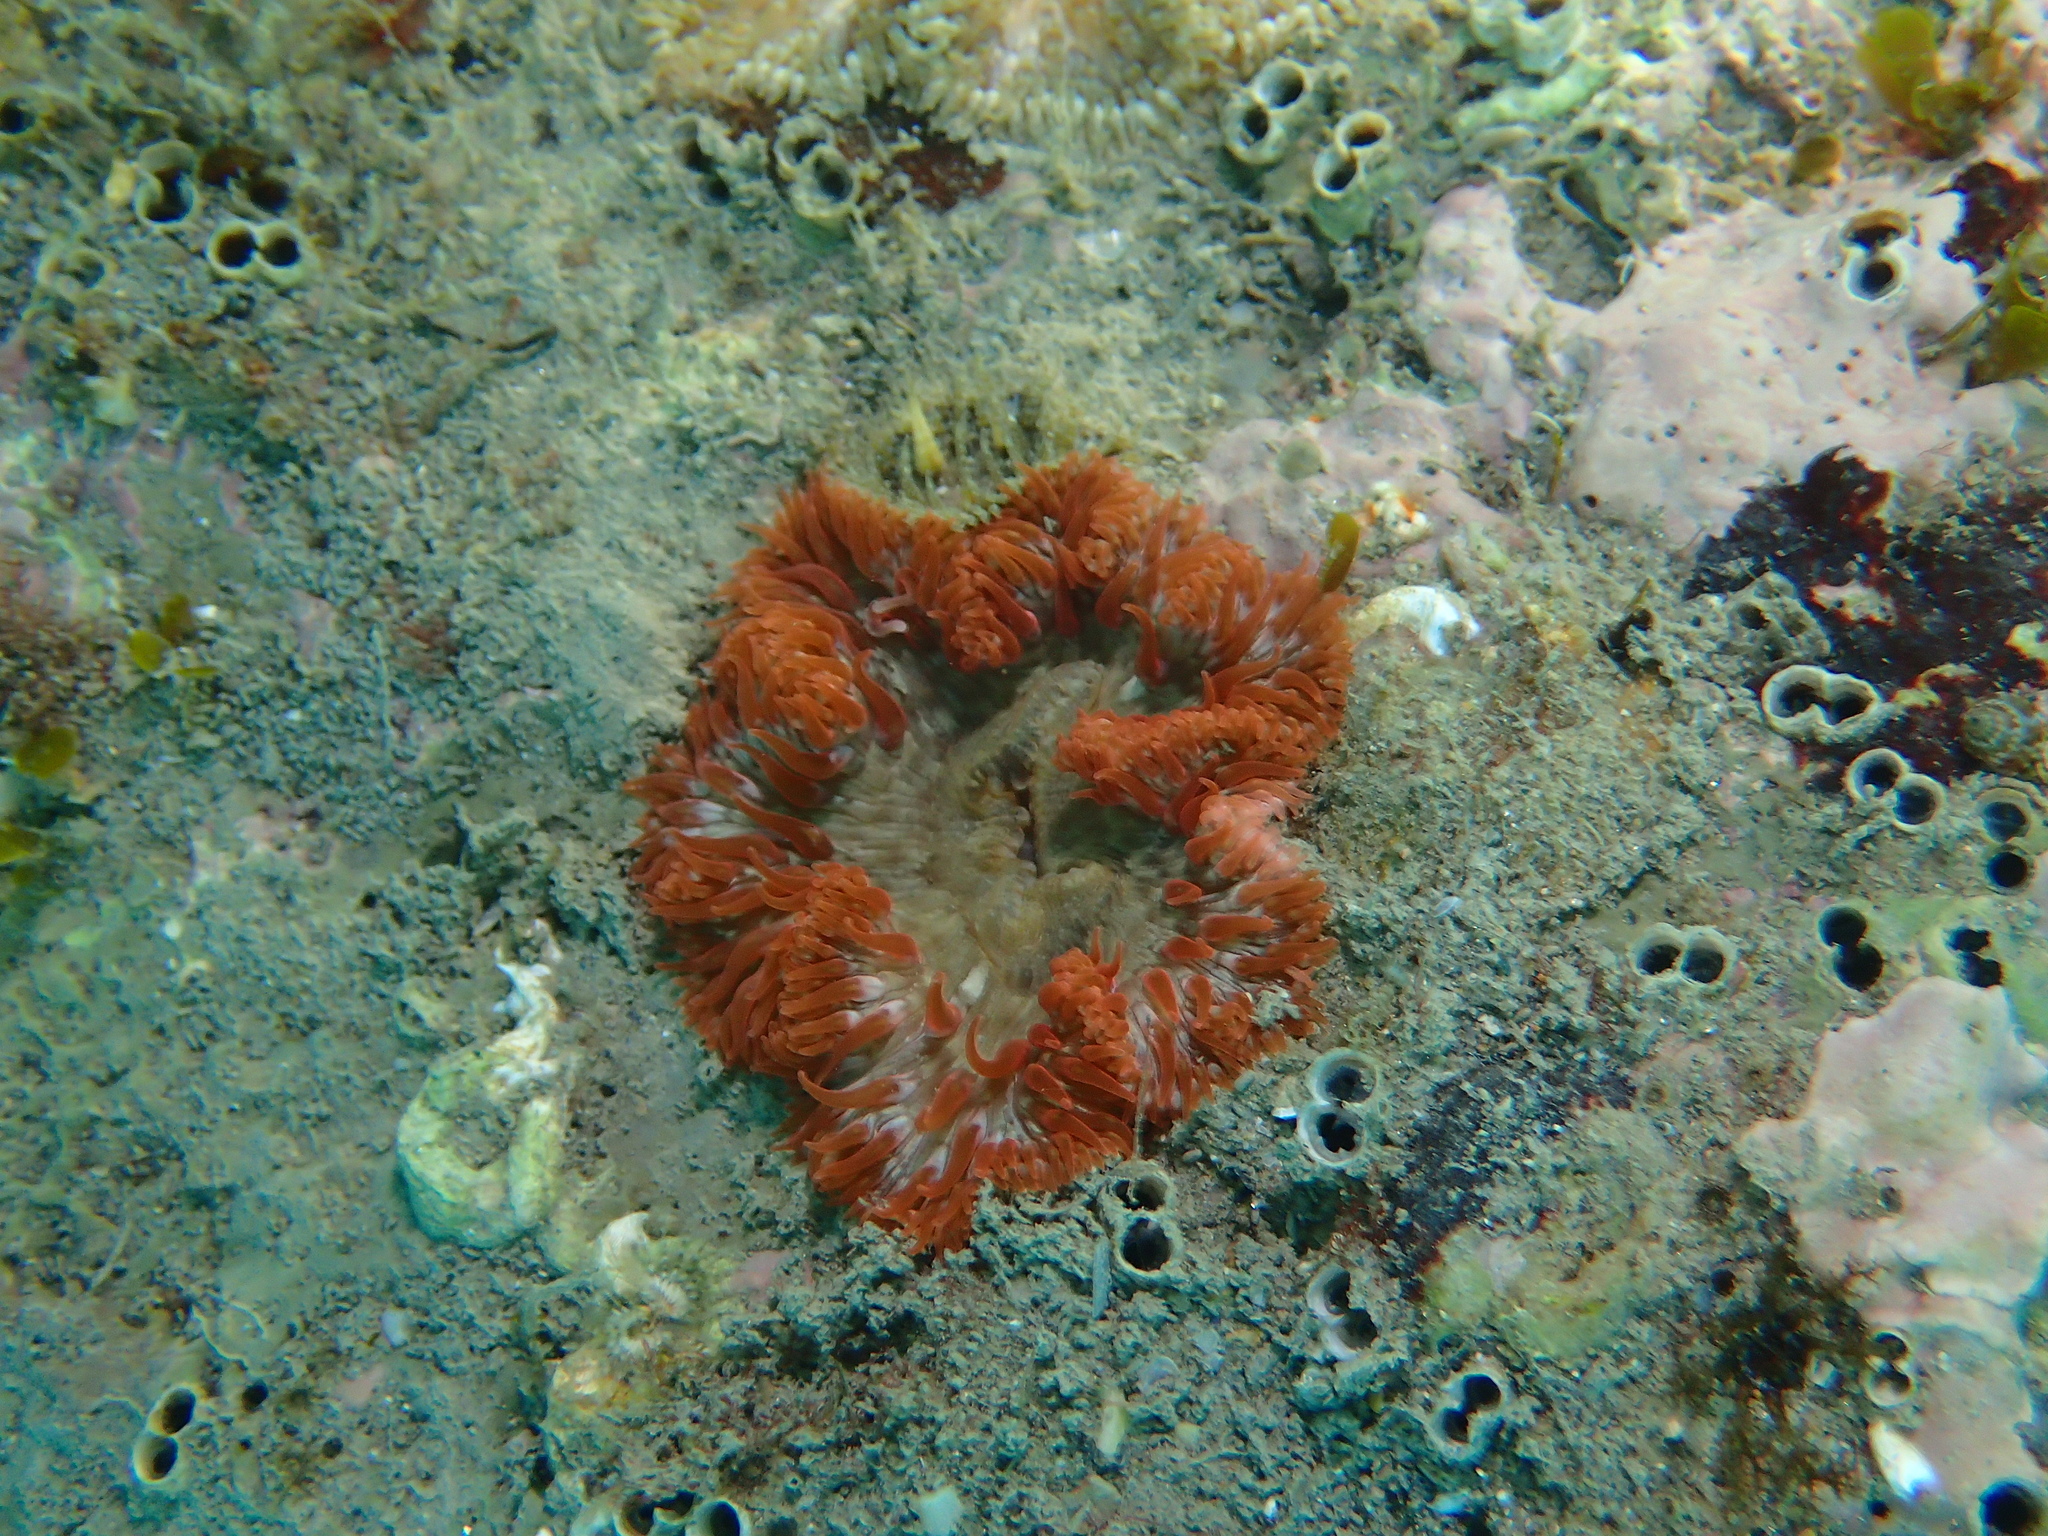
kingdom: Animalia
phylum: Cnidaria
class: Anthozoa
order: Actiniaria
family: Sagartiidae
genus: Cereus
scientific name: Cereus pedunculatus
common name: Daisy anemone
